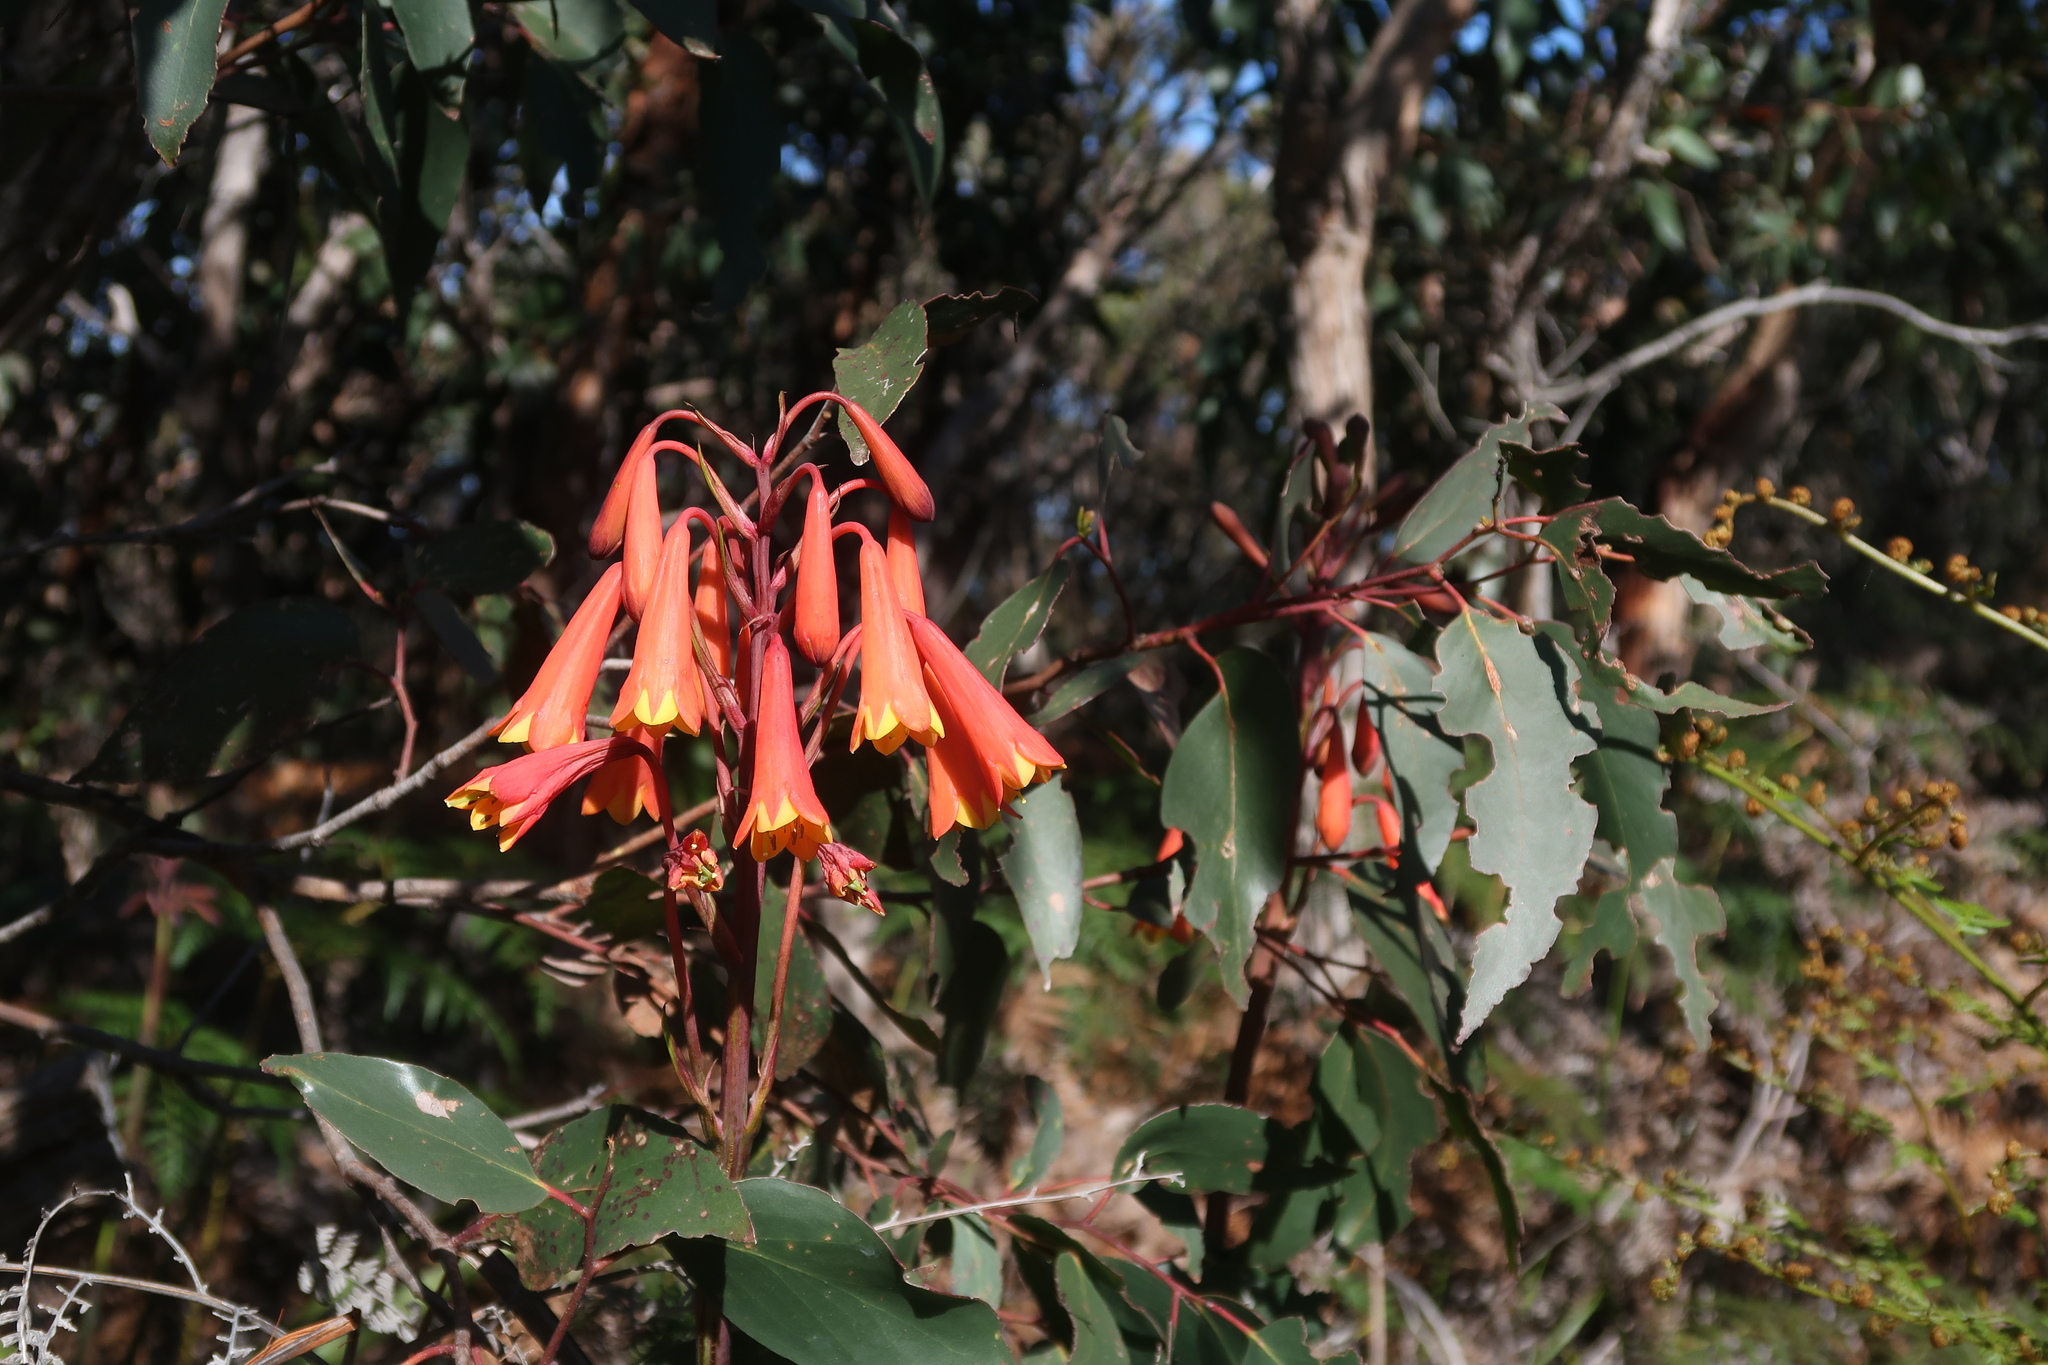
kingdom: Plantae
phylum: Tracheophyta
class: Liliopsida
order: Asparagales
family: Blandfordiaceae
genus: Blandfordia
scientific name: Blandfordia punicea
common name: Tasmanian christmas-bell
